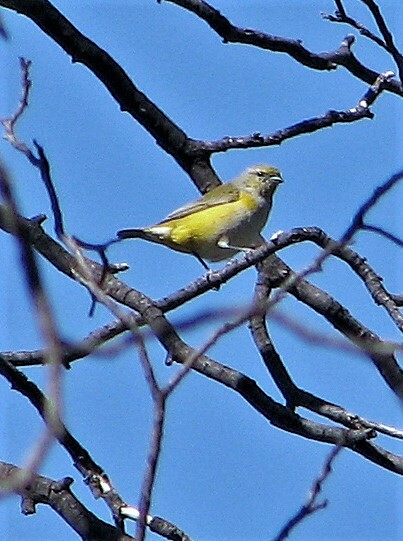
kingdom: Animalia
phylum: Chordata
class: Aves
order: Passeriformes
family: Fringillidae
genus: Euphonia
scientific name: Euphonia chlorotica
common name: Purple-throated euphonia
